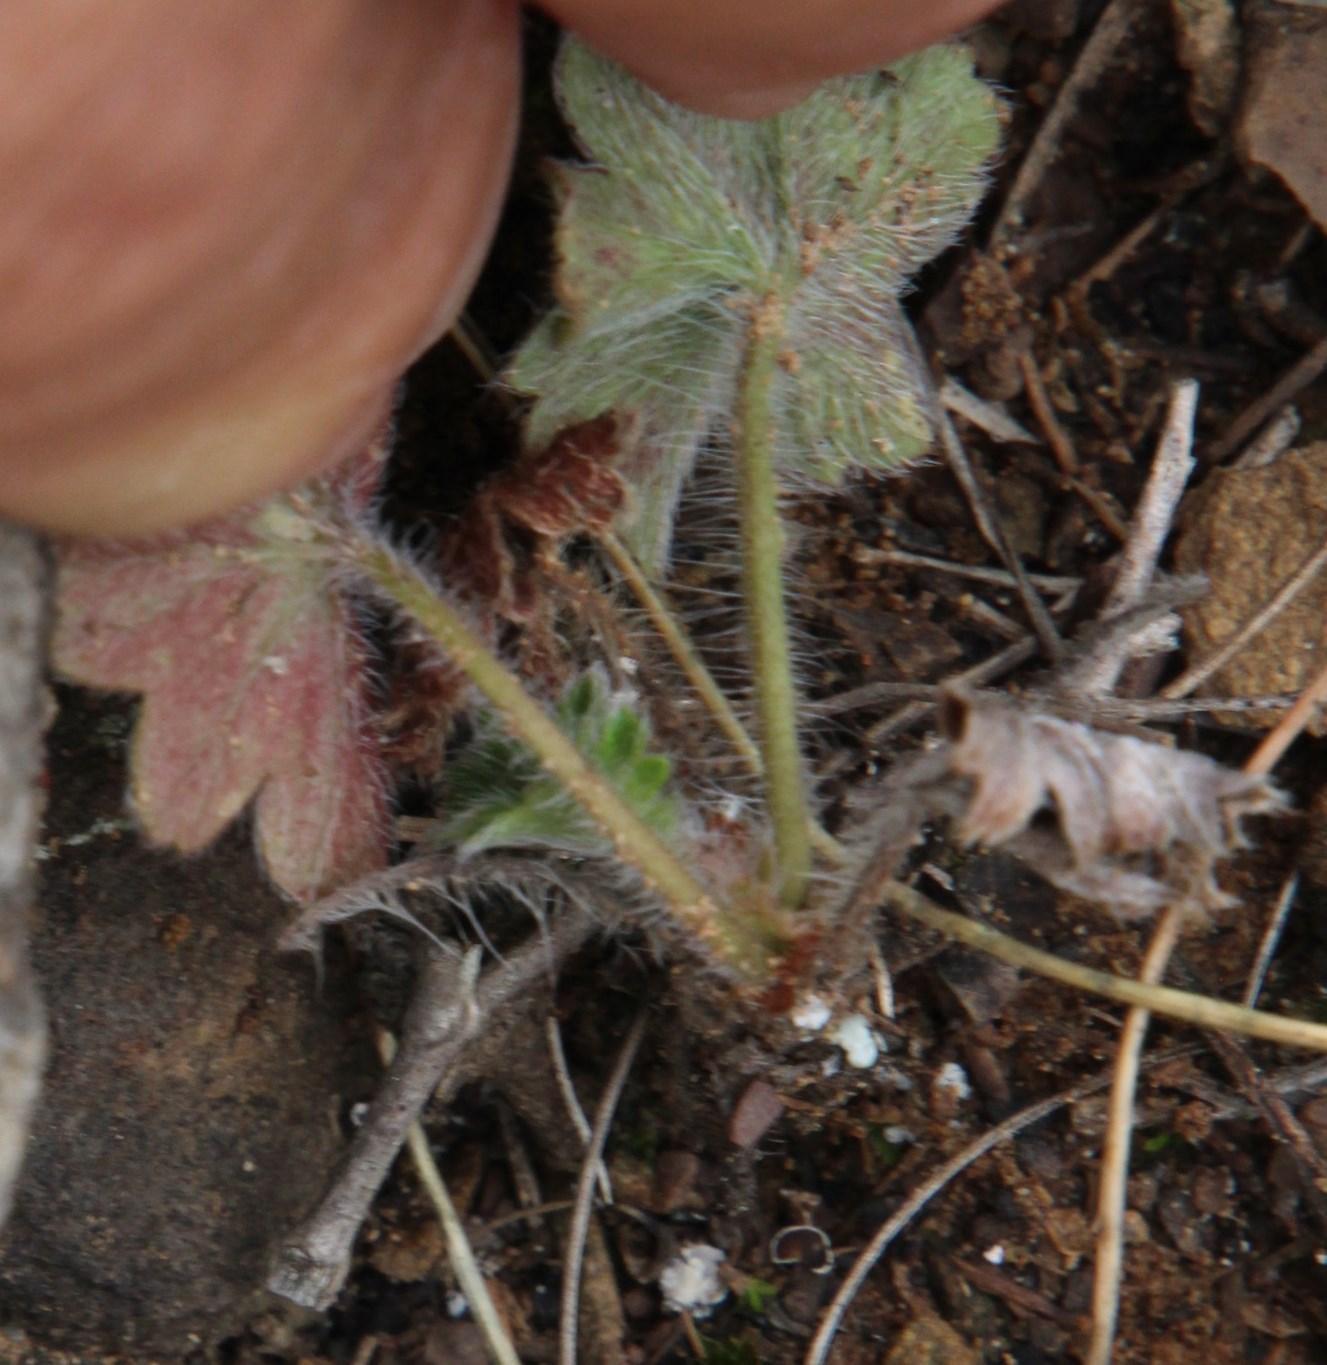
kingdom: Plantae
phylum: Tracheophyta
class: Magnoliopsida
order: Geraniales
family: Geraniaceae
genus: Pelargonium
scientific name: Pelargonium alchemilloides
